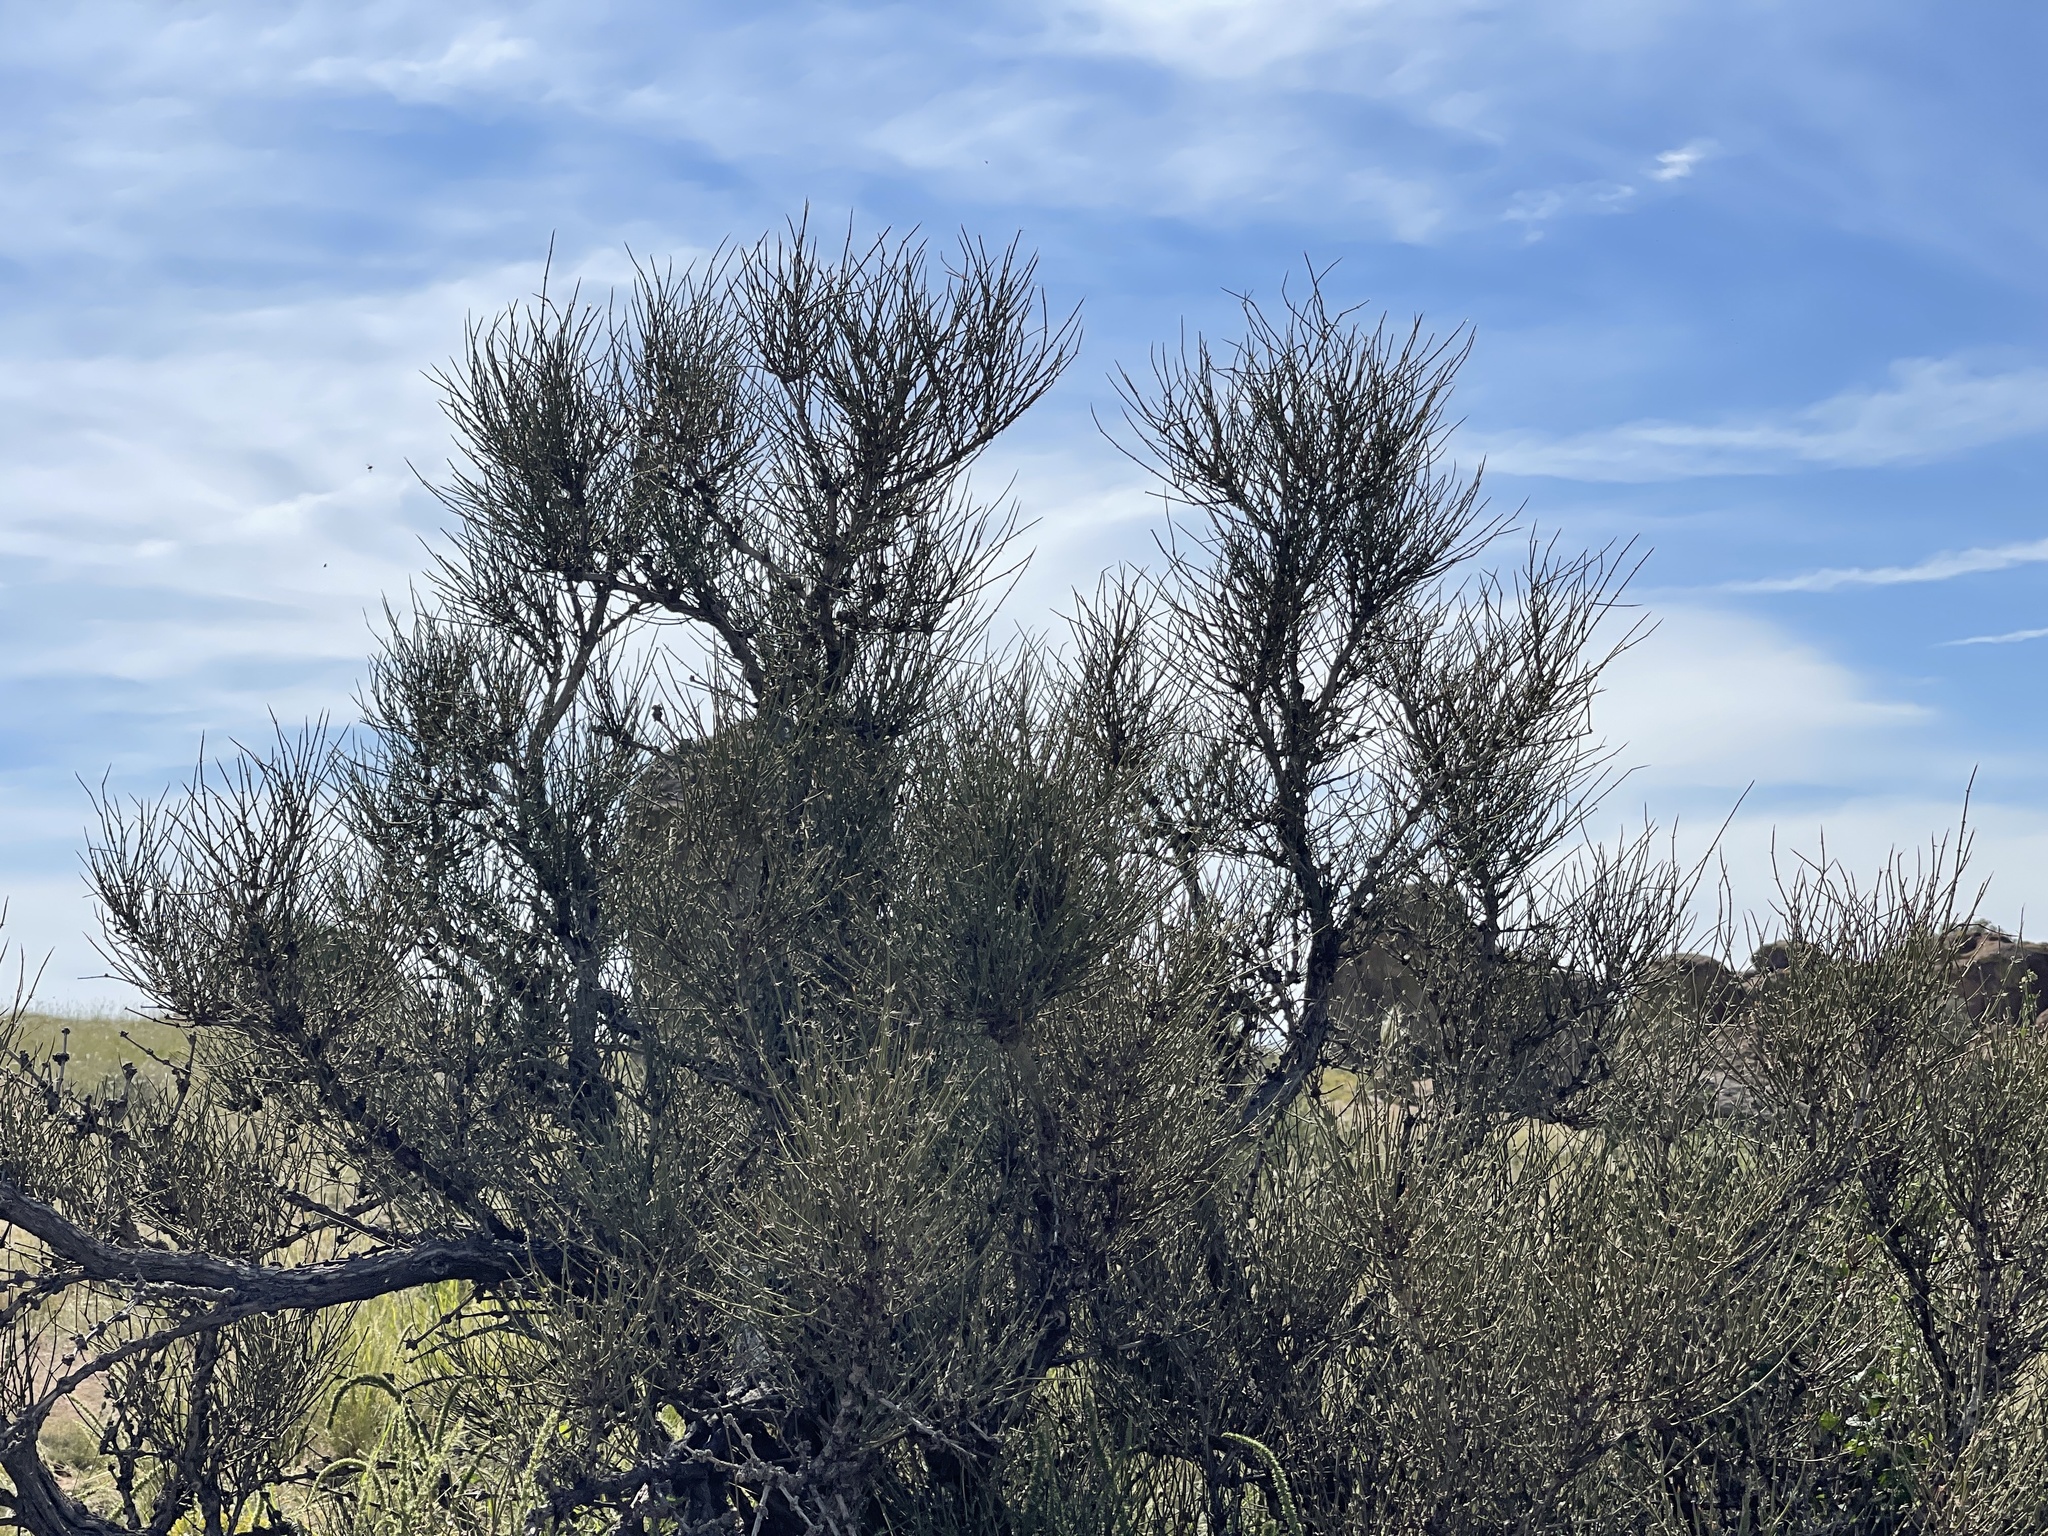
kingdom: Plantae
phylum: Tracheophyta
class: Gnetopsida
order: Ephedrales
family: Ephedraceae
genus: Ephedra
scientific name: Ephedra trifurca
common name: Mexican-tea
